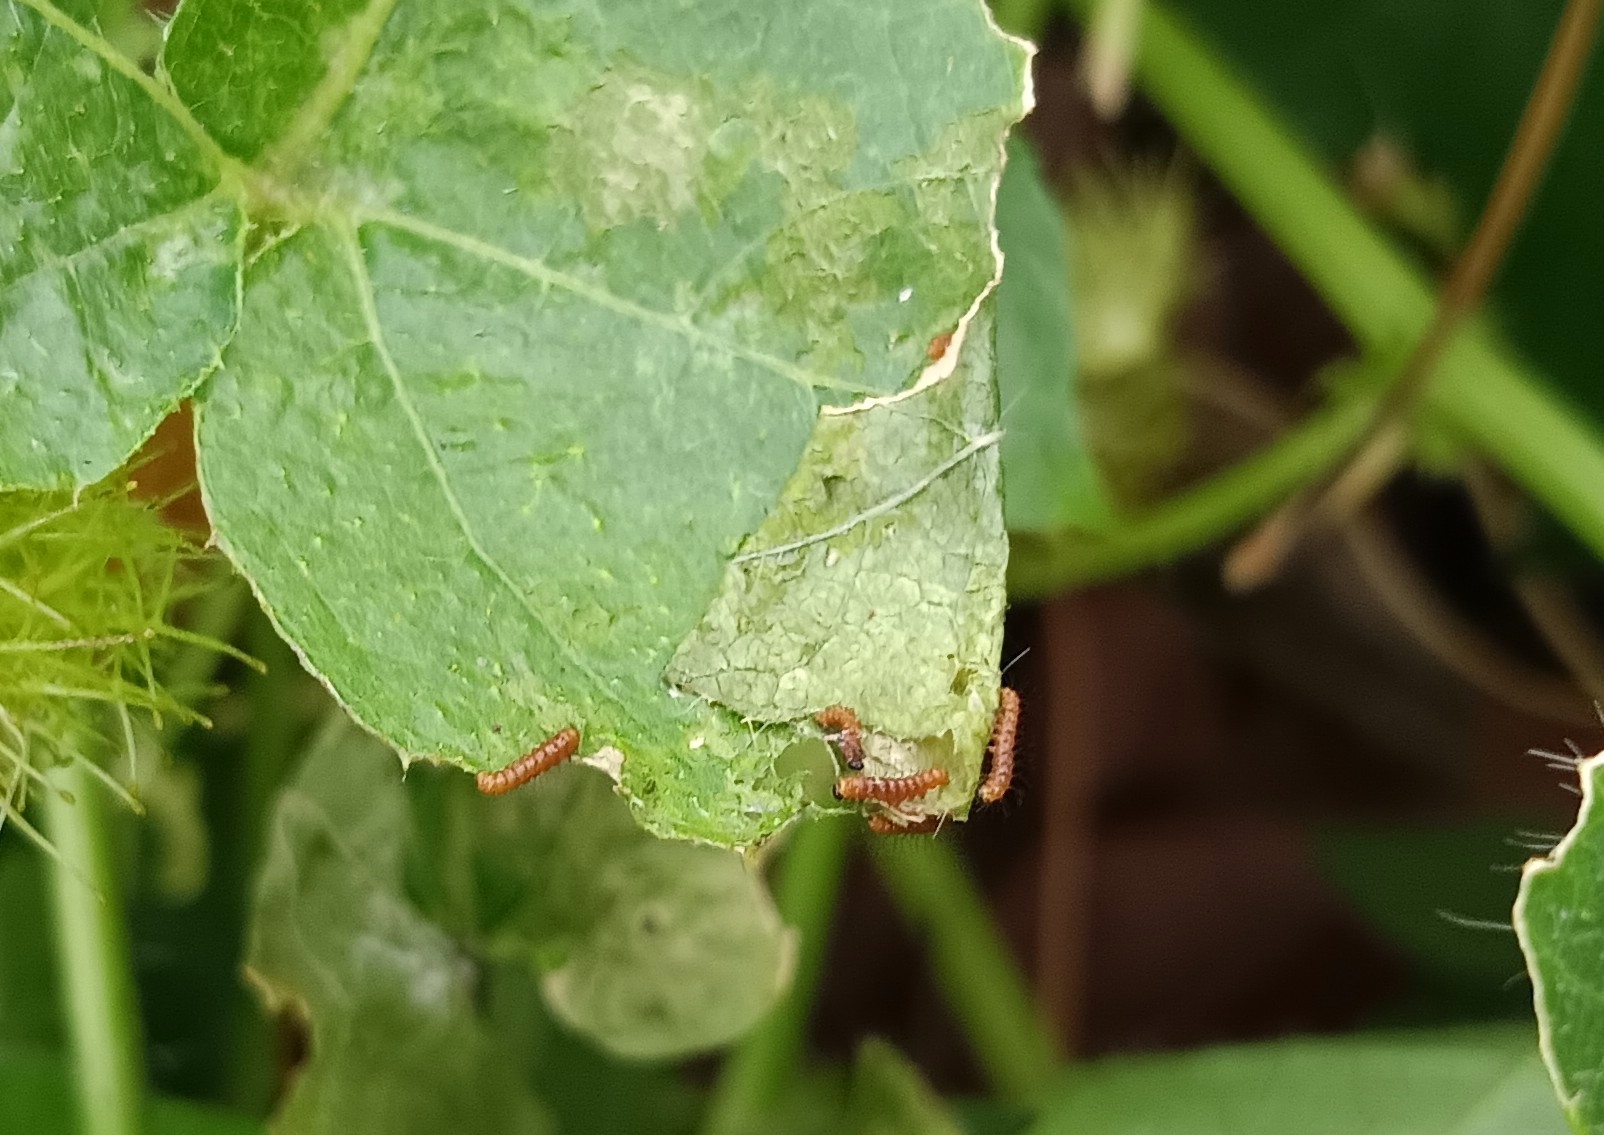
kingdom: Animalia
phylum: Arthropoda
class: Insecta
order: Lepidoptera
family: Nymphalidae
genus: Acraea
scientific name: Acraea terpsicore
